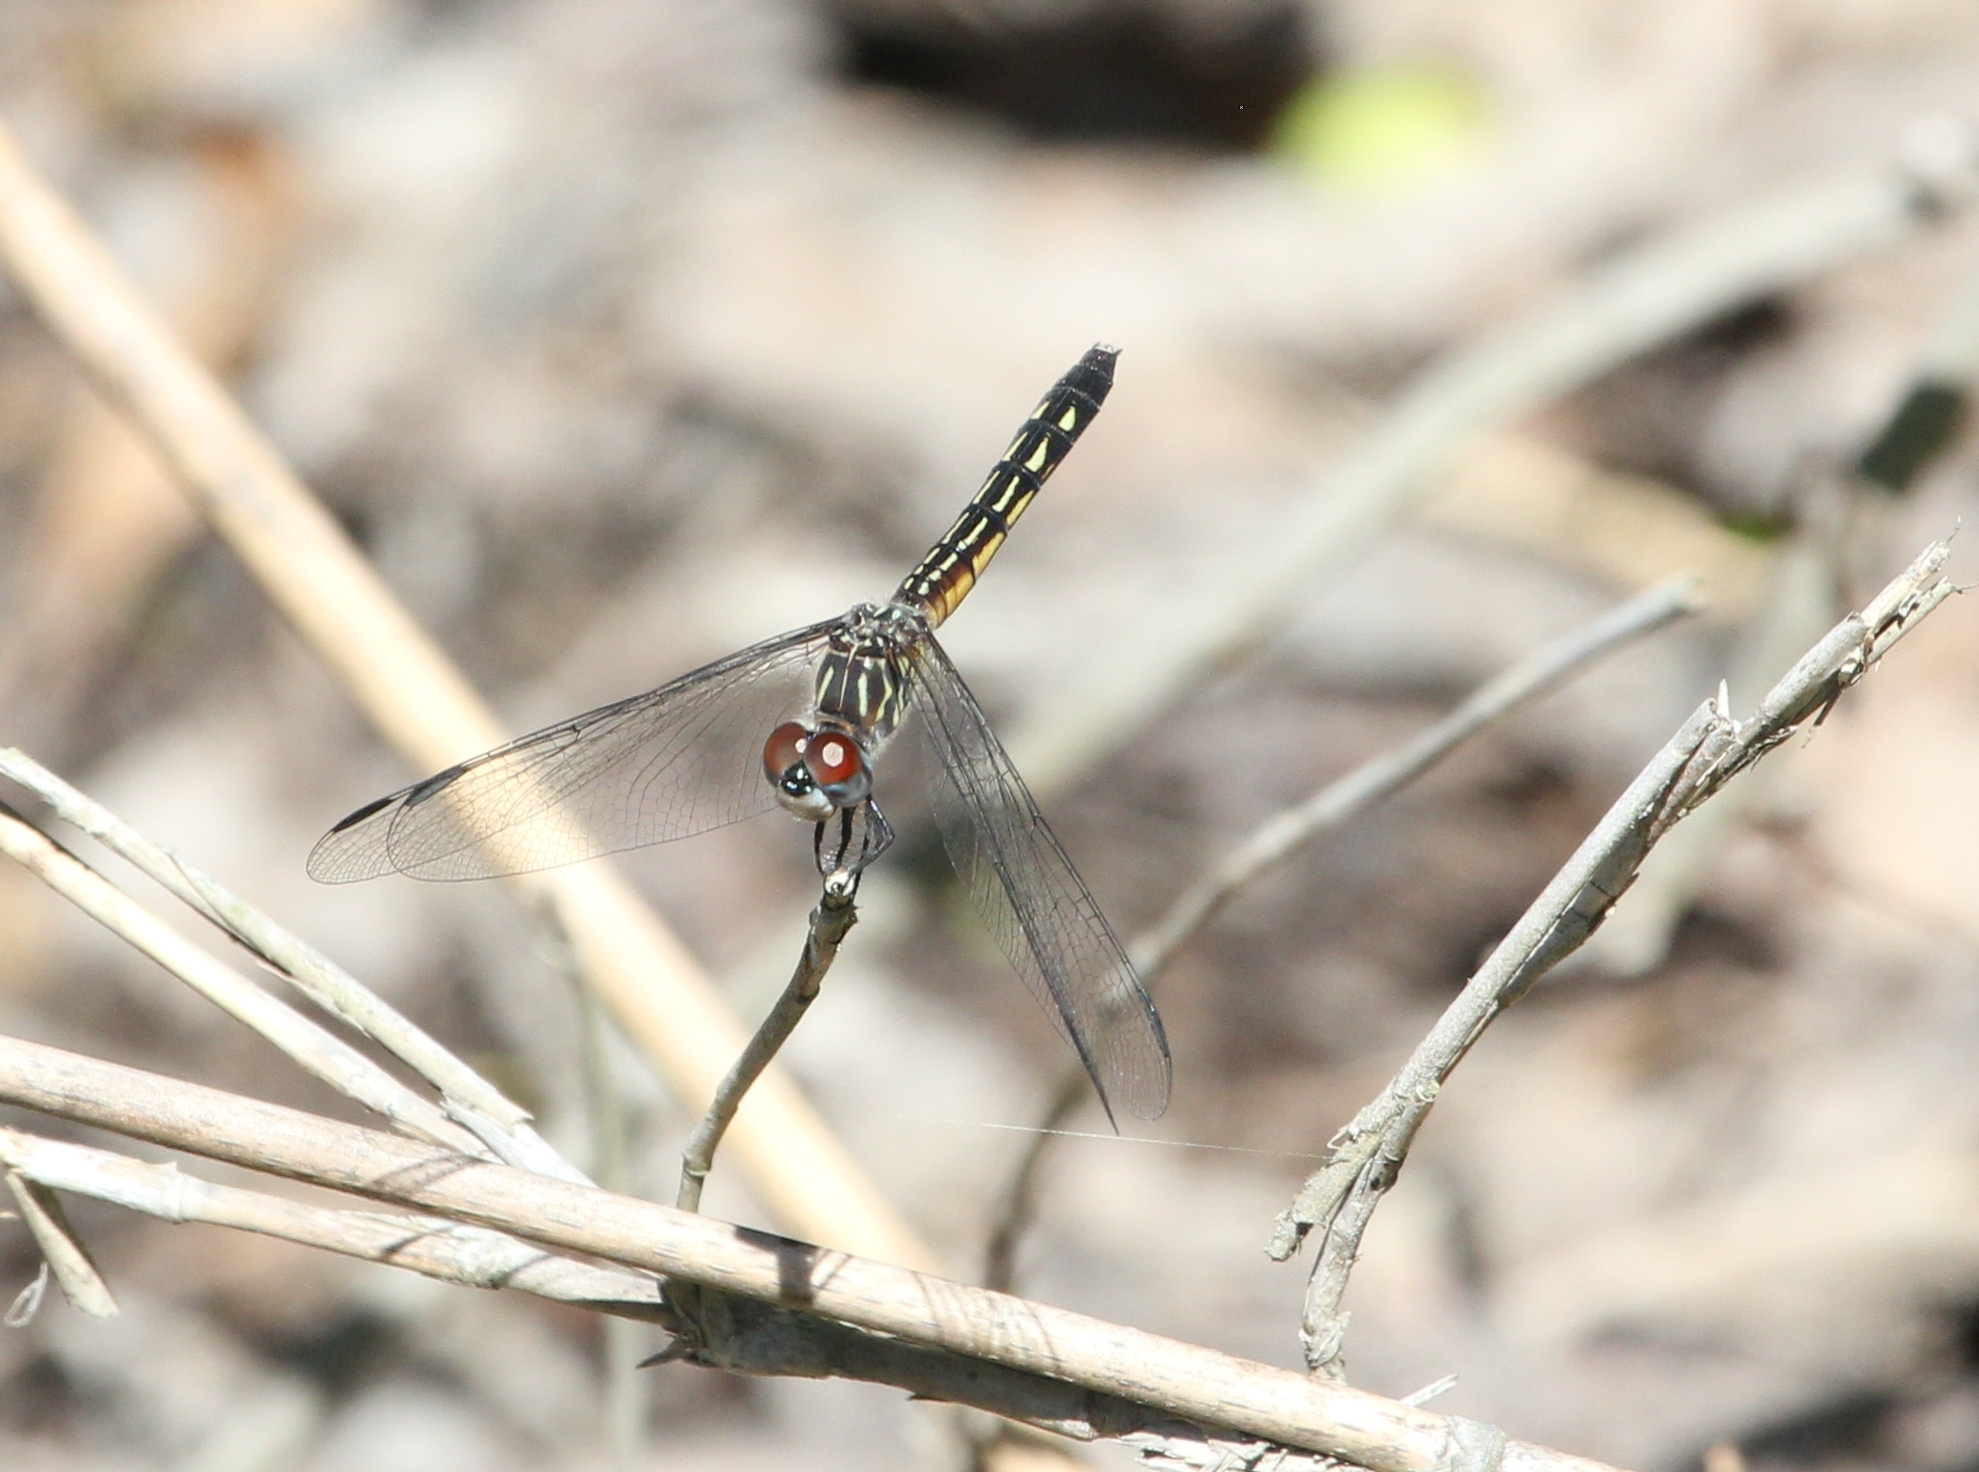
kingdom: Animalia
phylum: Arthropoda
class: Insecta
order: Odonata
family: Libellulidae
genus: Pachydiplax
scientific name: Pachydiplax longipennis
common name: Blue dasher
